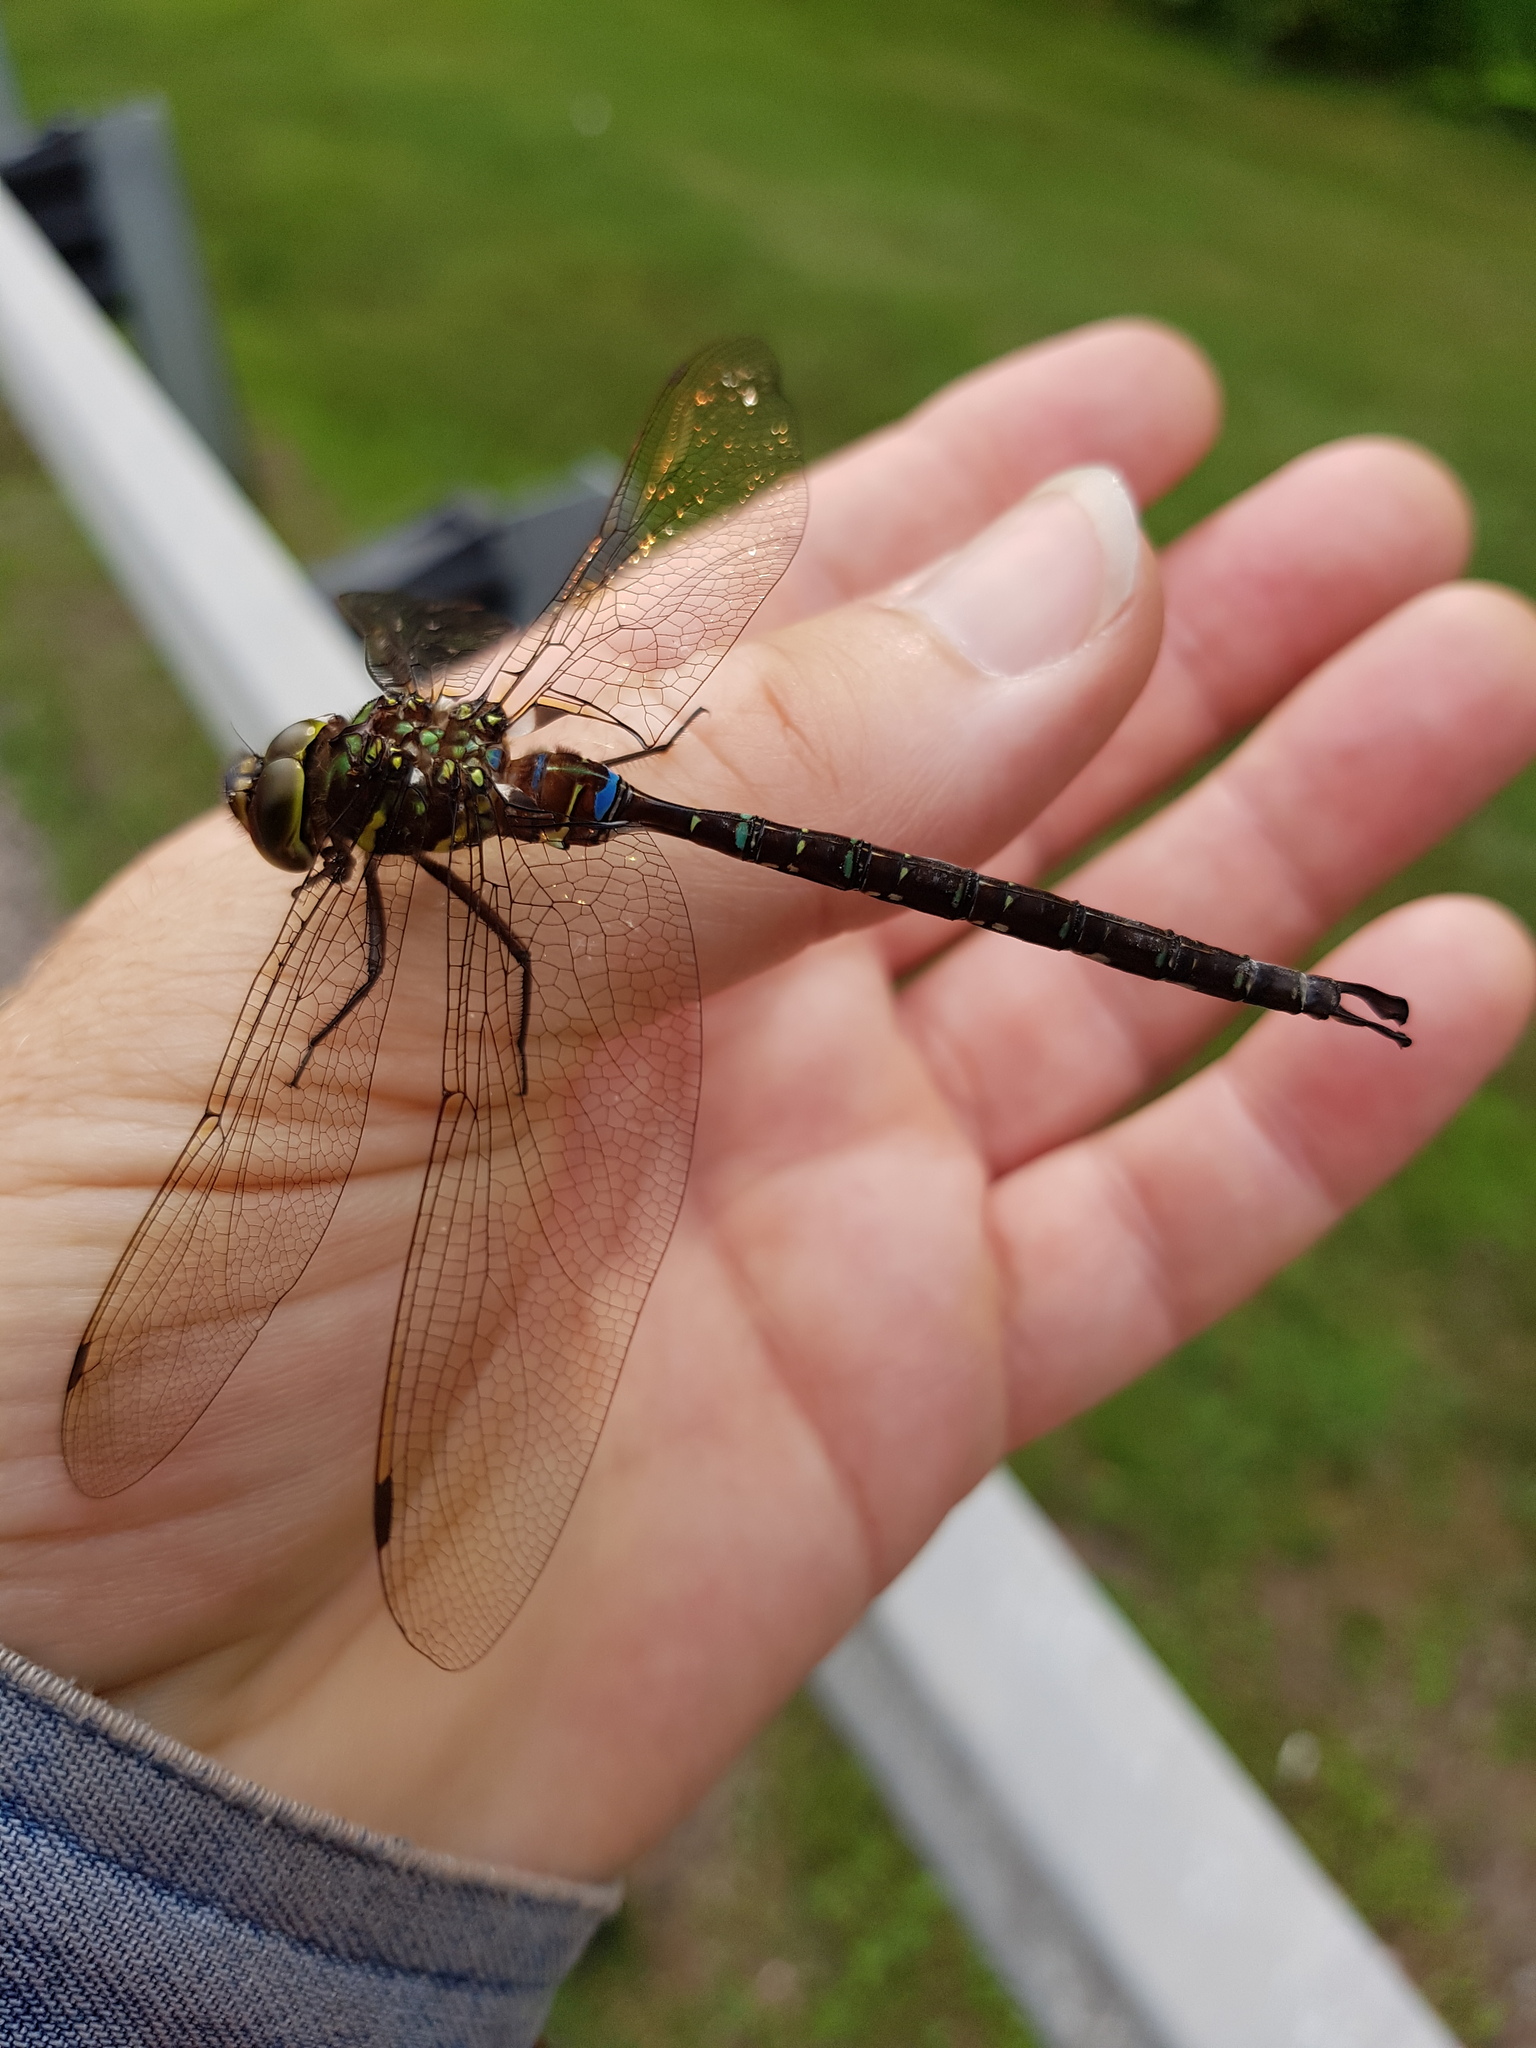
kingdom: Animalia
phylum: Arthropoda
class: Insecta
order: Odonata
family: Aeshnidae
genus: Aeshna
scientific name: Aeshna umbrosa
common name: Shadow darner
